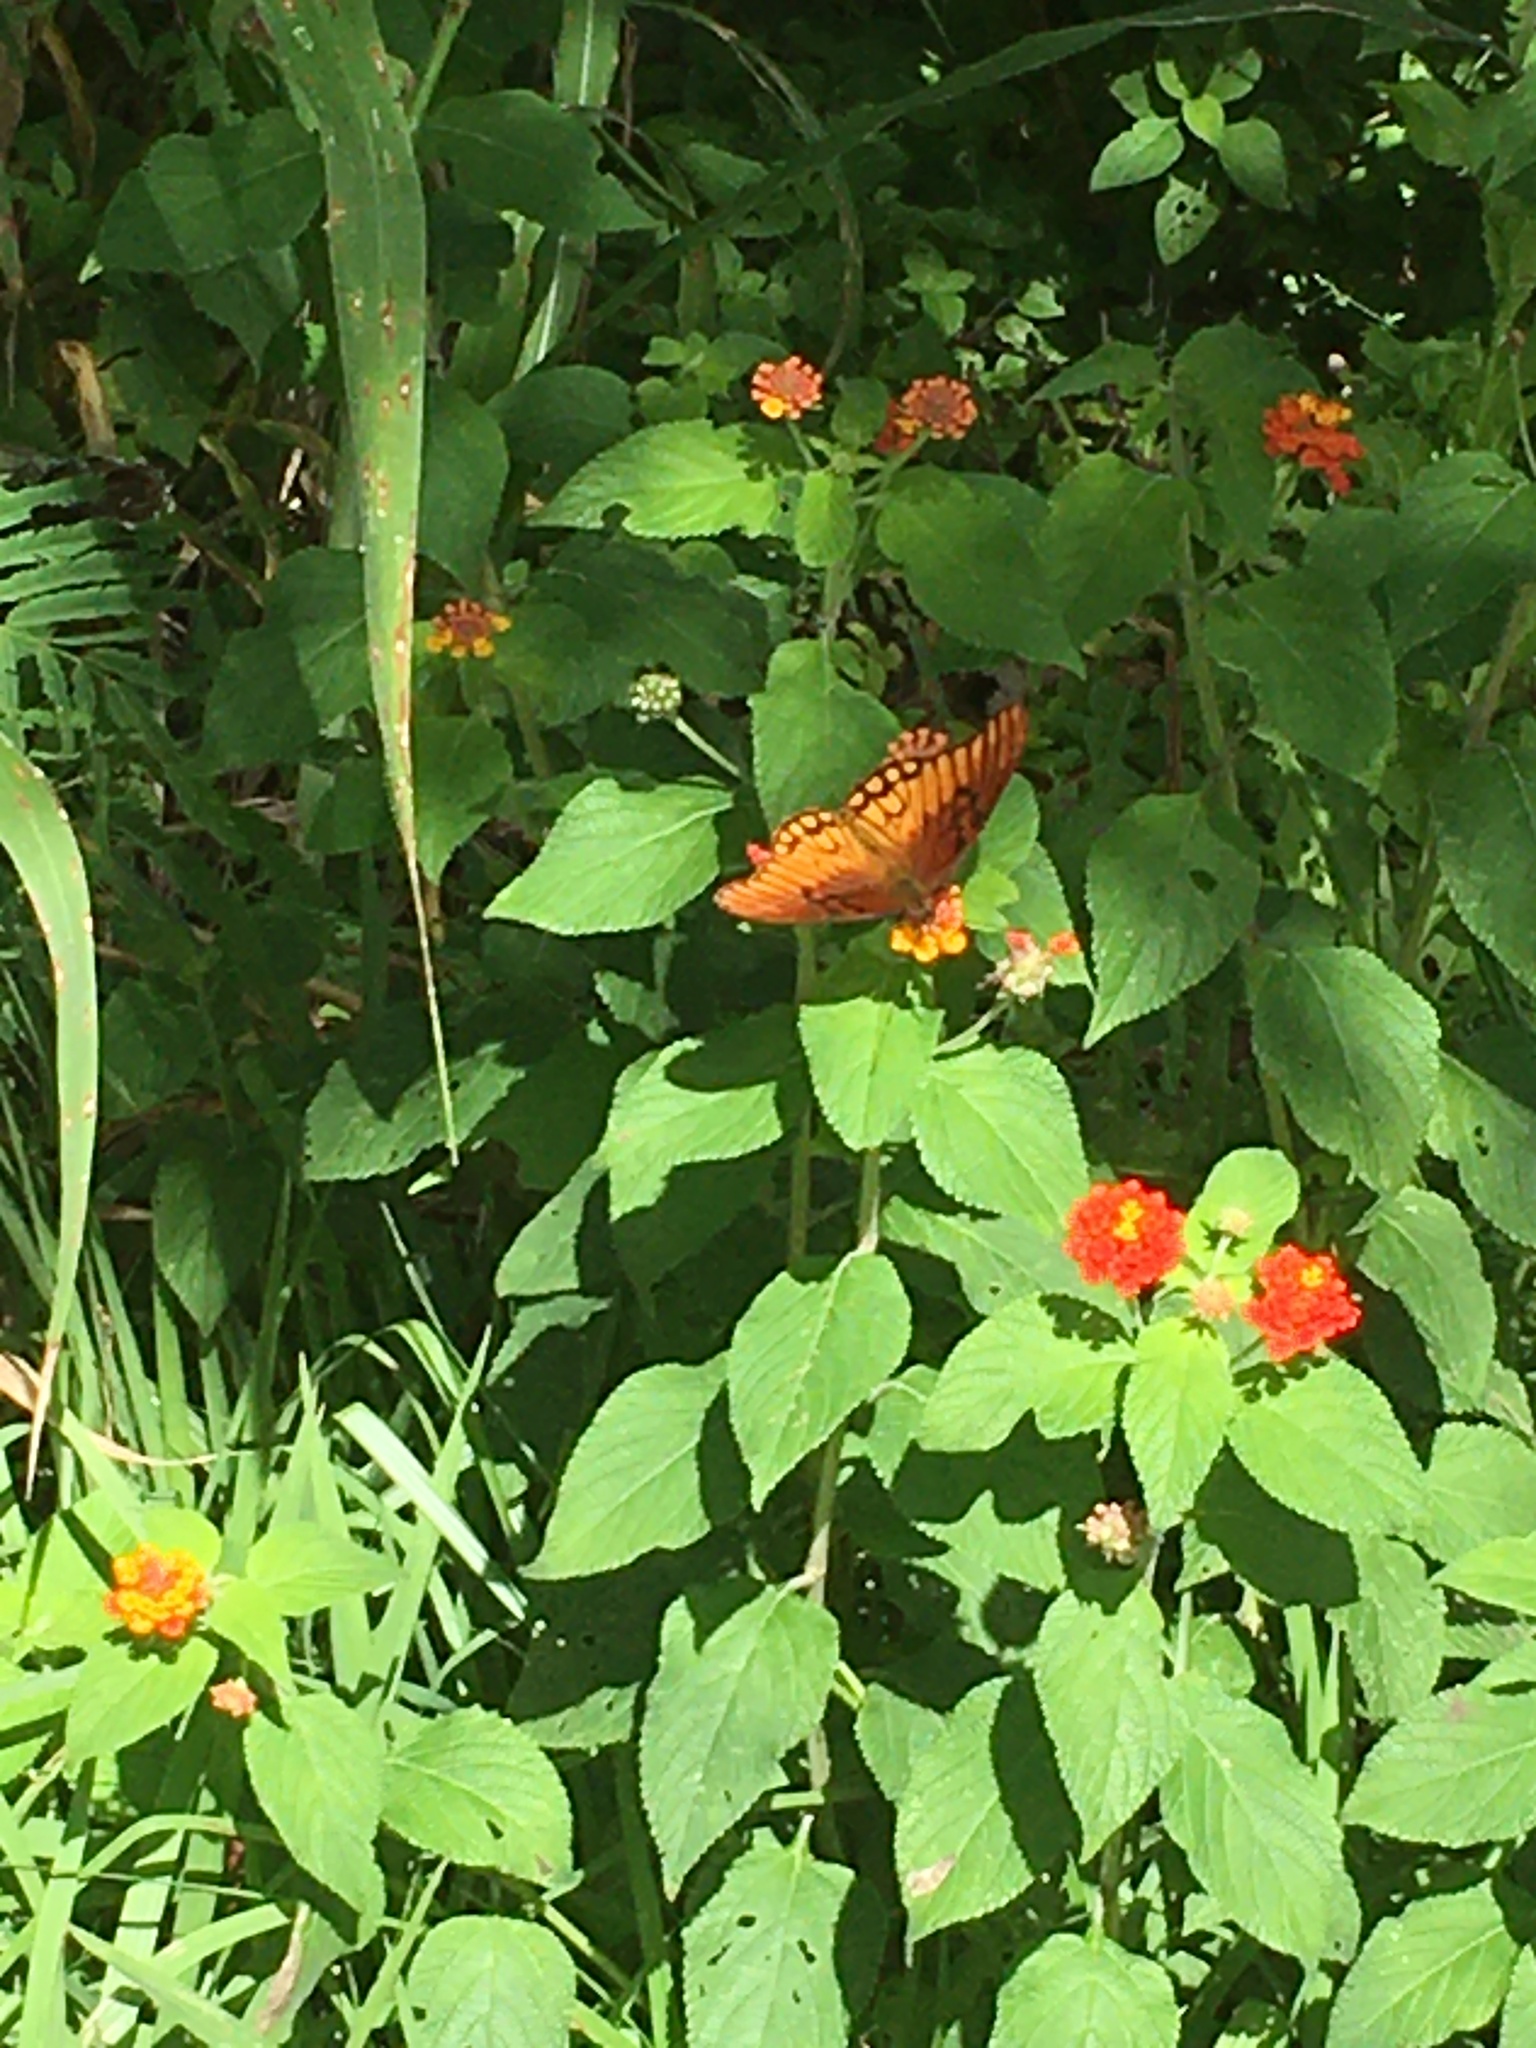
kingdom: Animalia
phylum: Arthropoda
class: Insecta
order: Lepidoptera
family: Nymphalidae
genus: Dione
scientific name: Dione moneta
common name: Mexican silverspot
